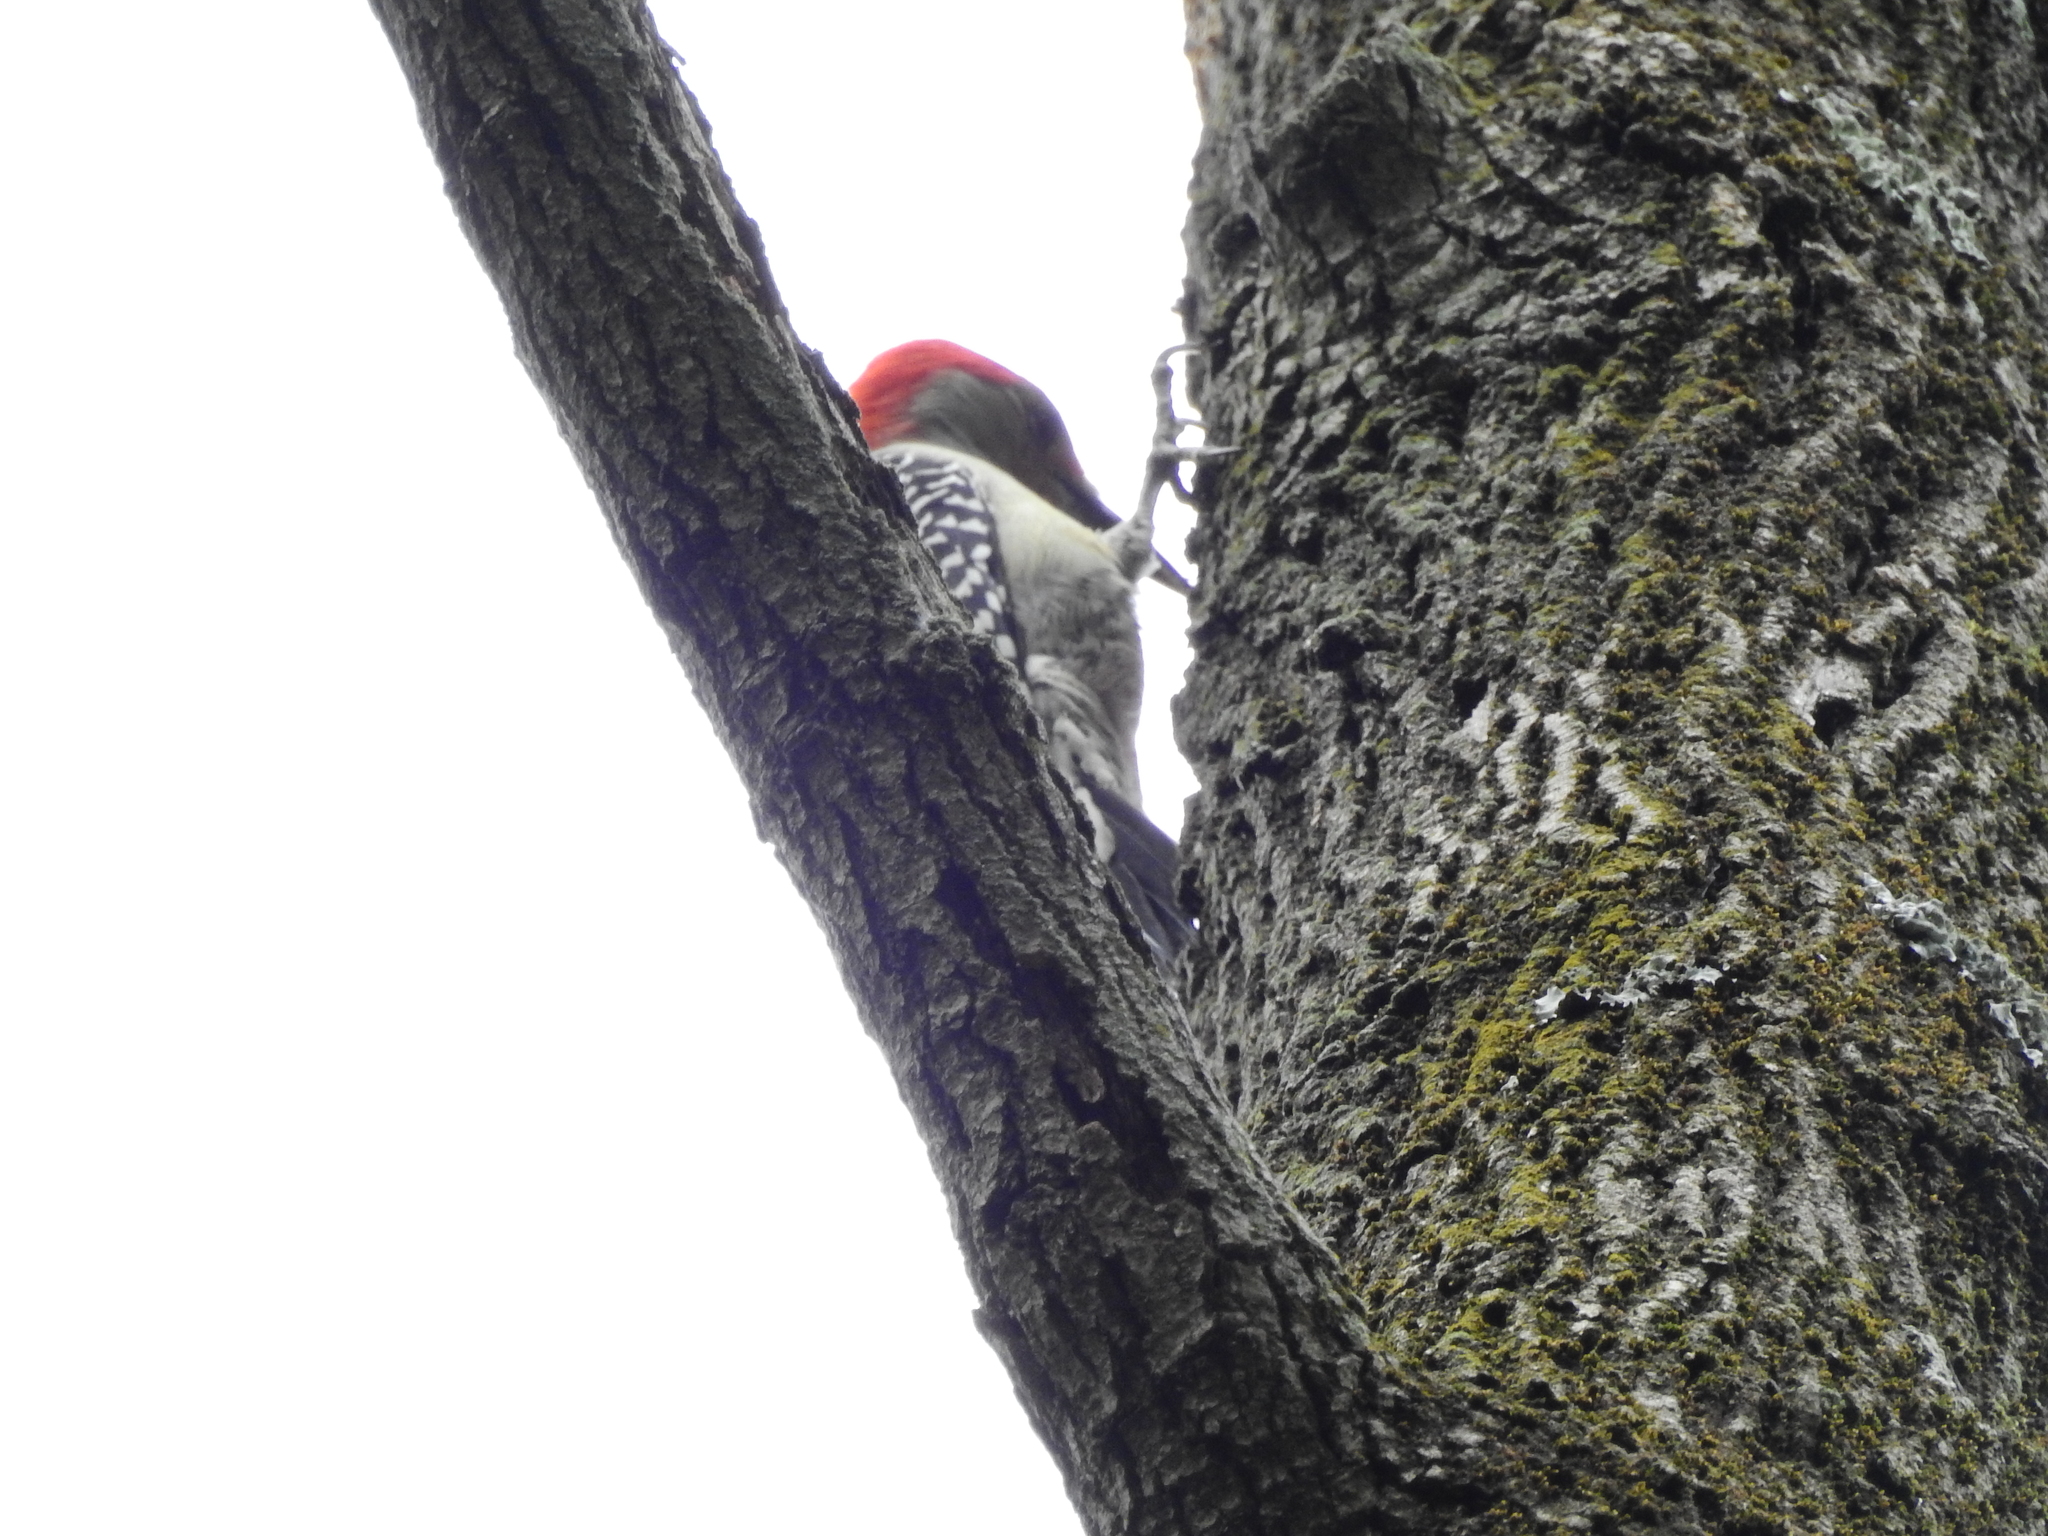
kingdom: Animalia
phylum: Chordata
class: Aves
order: Piciformes
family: Picidae
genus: Melanerpes
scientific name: Melanerpes carolinus
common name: Red-bellied woodpecker
